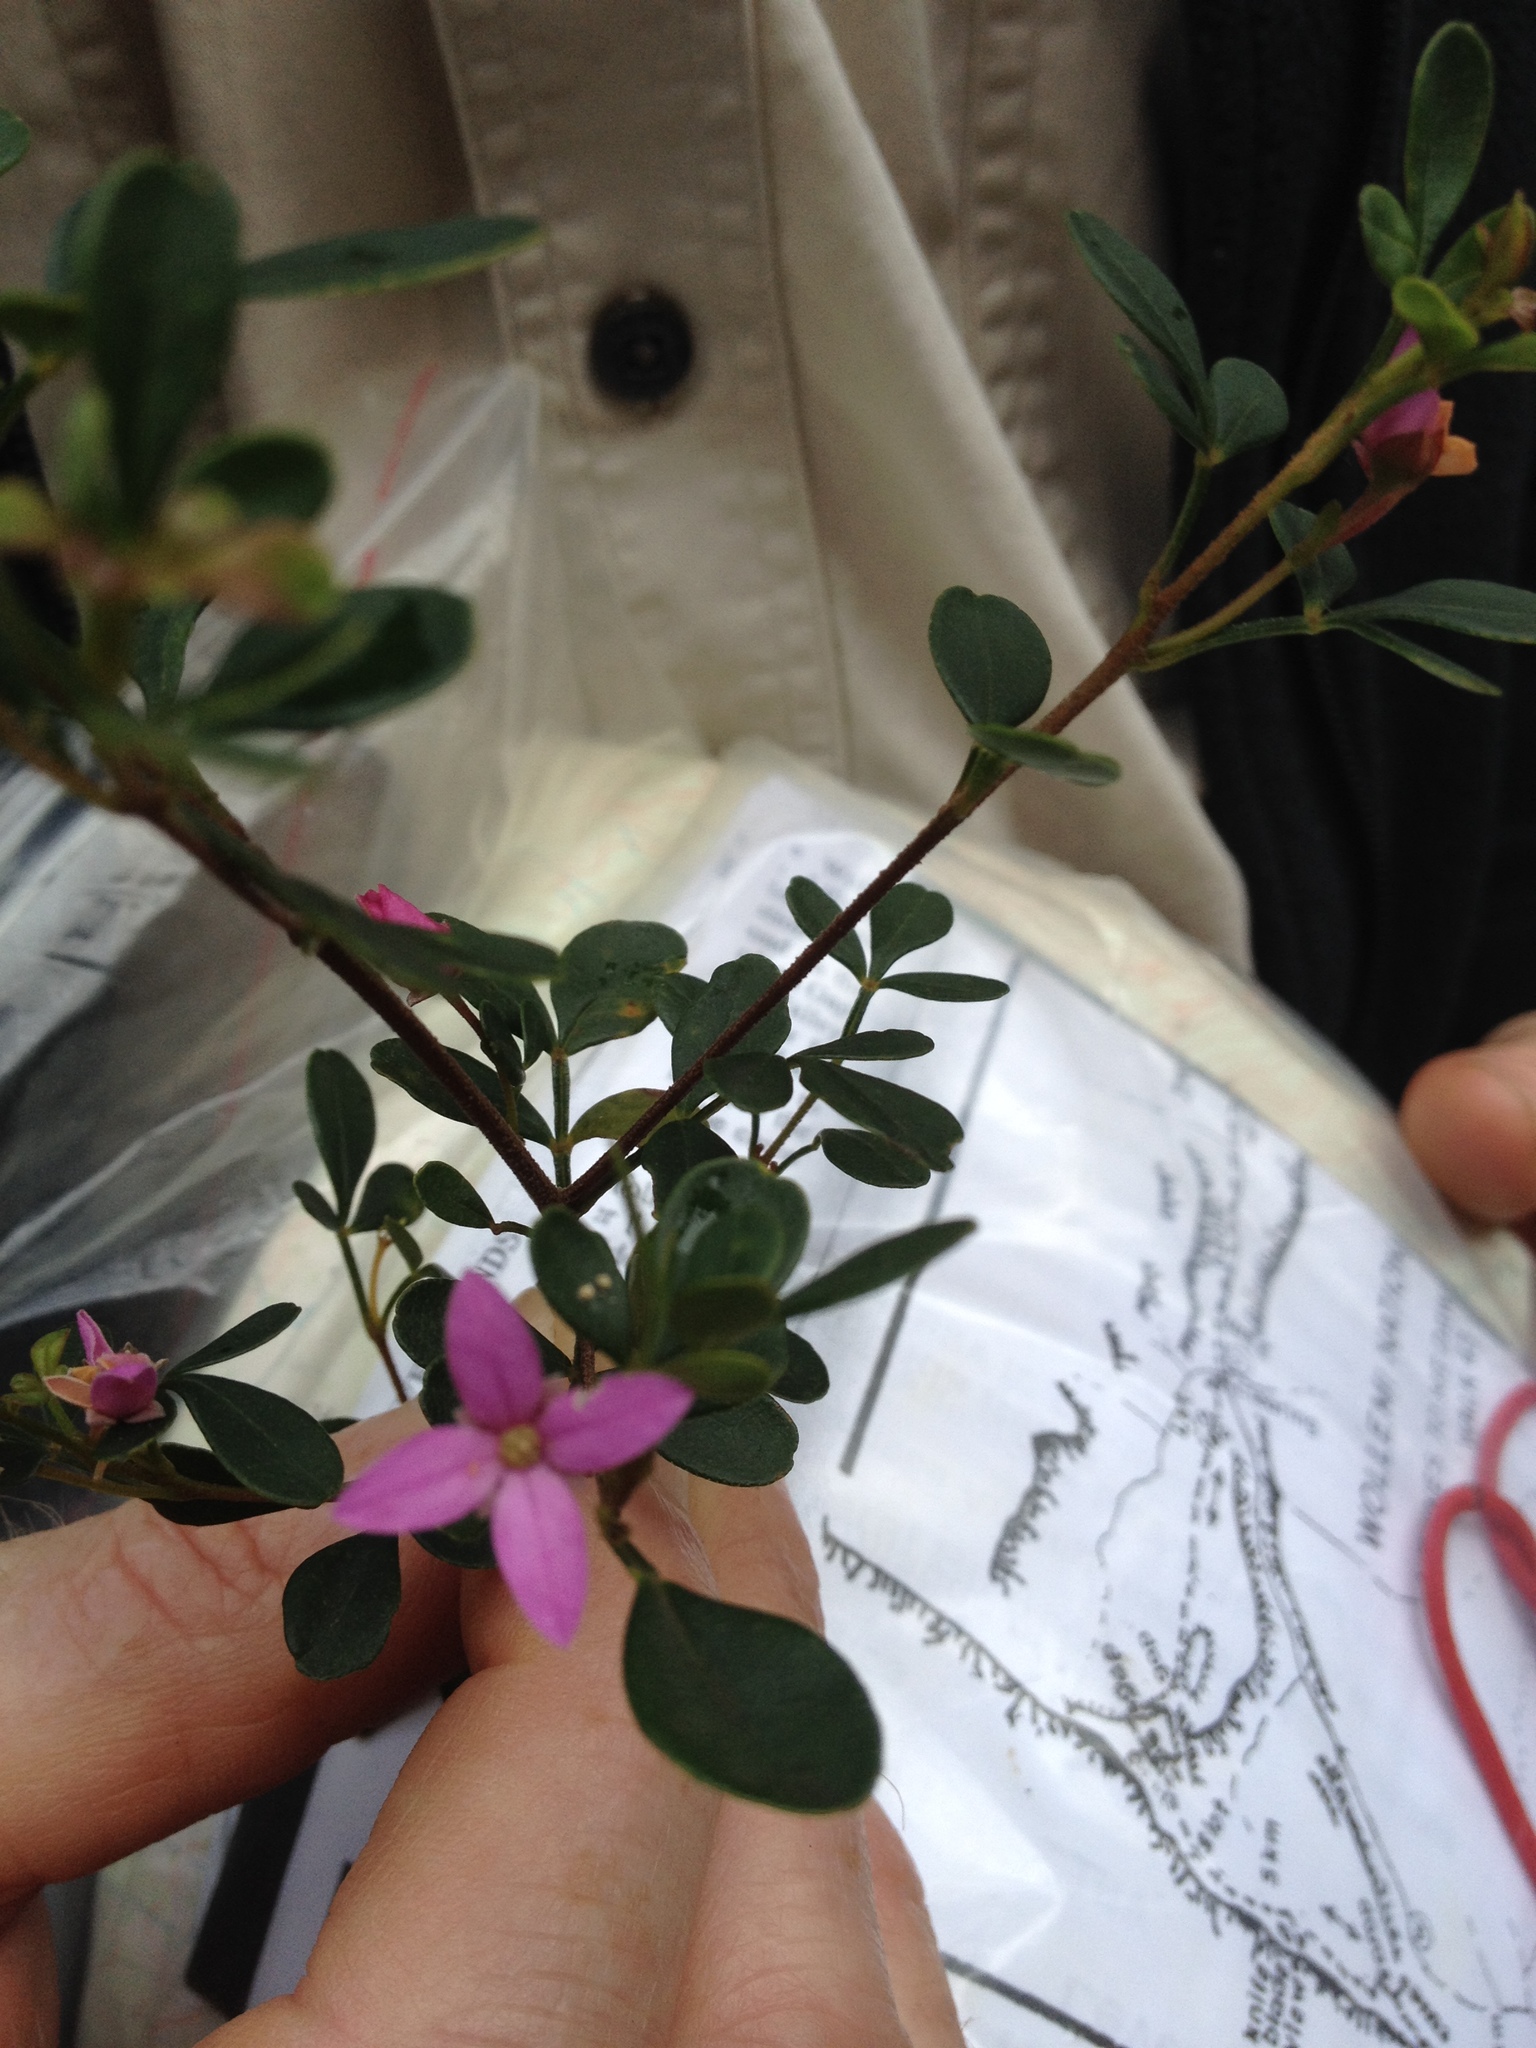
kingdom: Plantae
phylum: Tracheophyta
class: Magnoliopsida
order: Sapindales
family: Rutaceae
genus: Boronia
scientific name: Boronia rubiginosa
